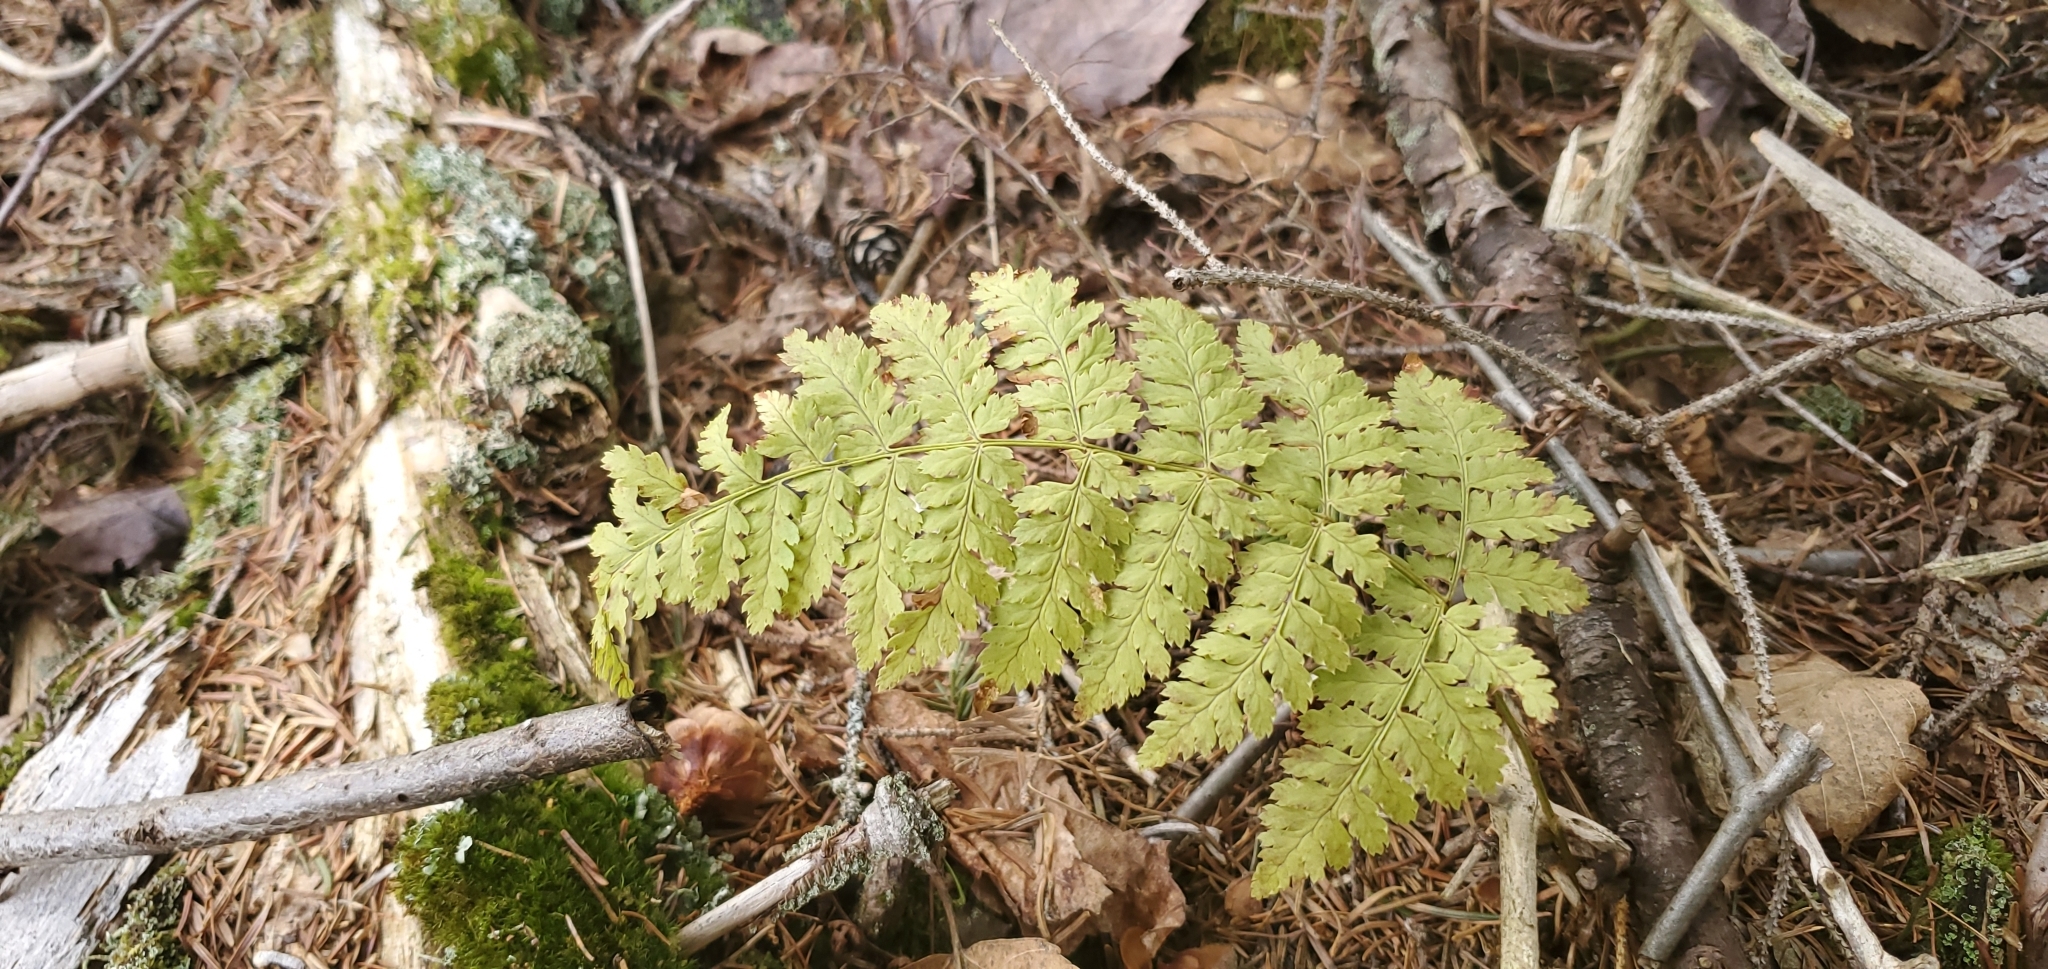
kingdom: Plantae
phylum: Tracheophyta
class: Polypodiopsida
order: Polypodiales
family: Dryopteridaceae
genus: Dryopteris
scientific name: Dryopteris intermedia
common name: Evergreen wood fern
